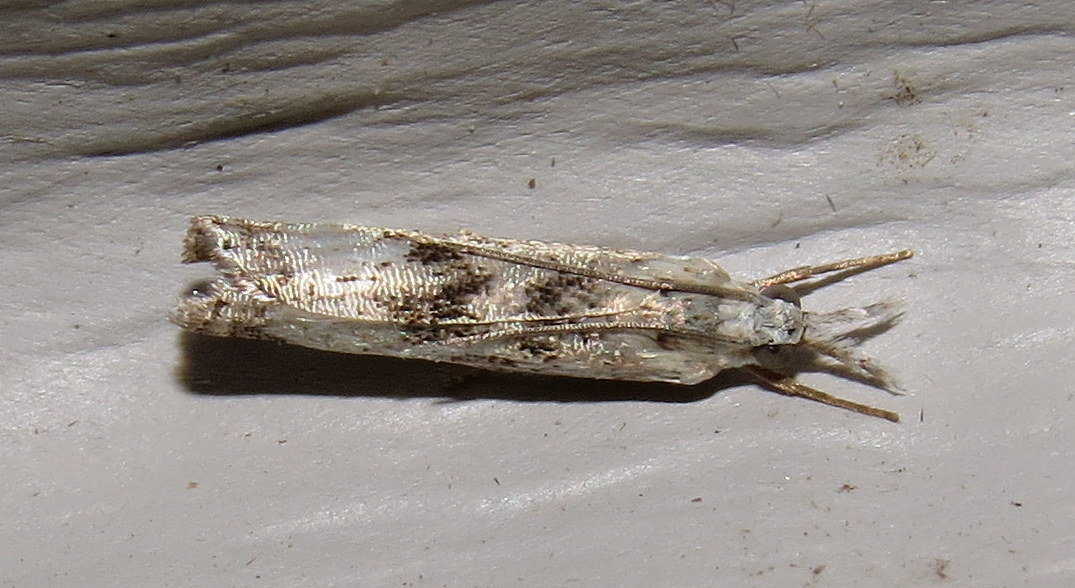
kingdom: Animalia
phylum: Arthropoda
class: Insecta
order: Lepidoptera
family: Crambidae
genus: Microcrambus
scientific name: Microcrambus immunellus
